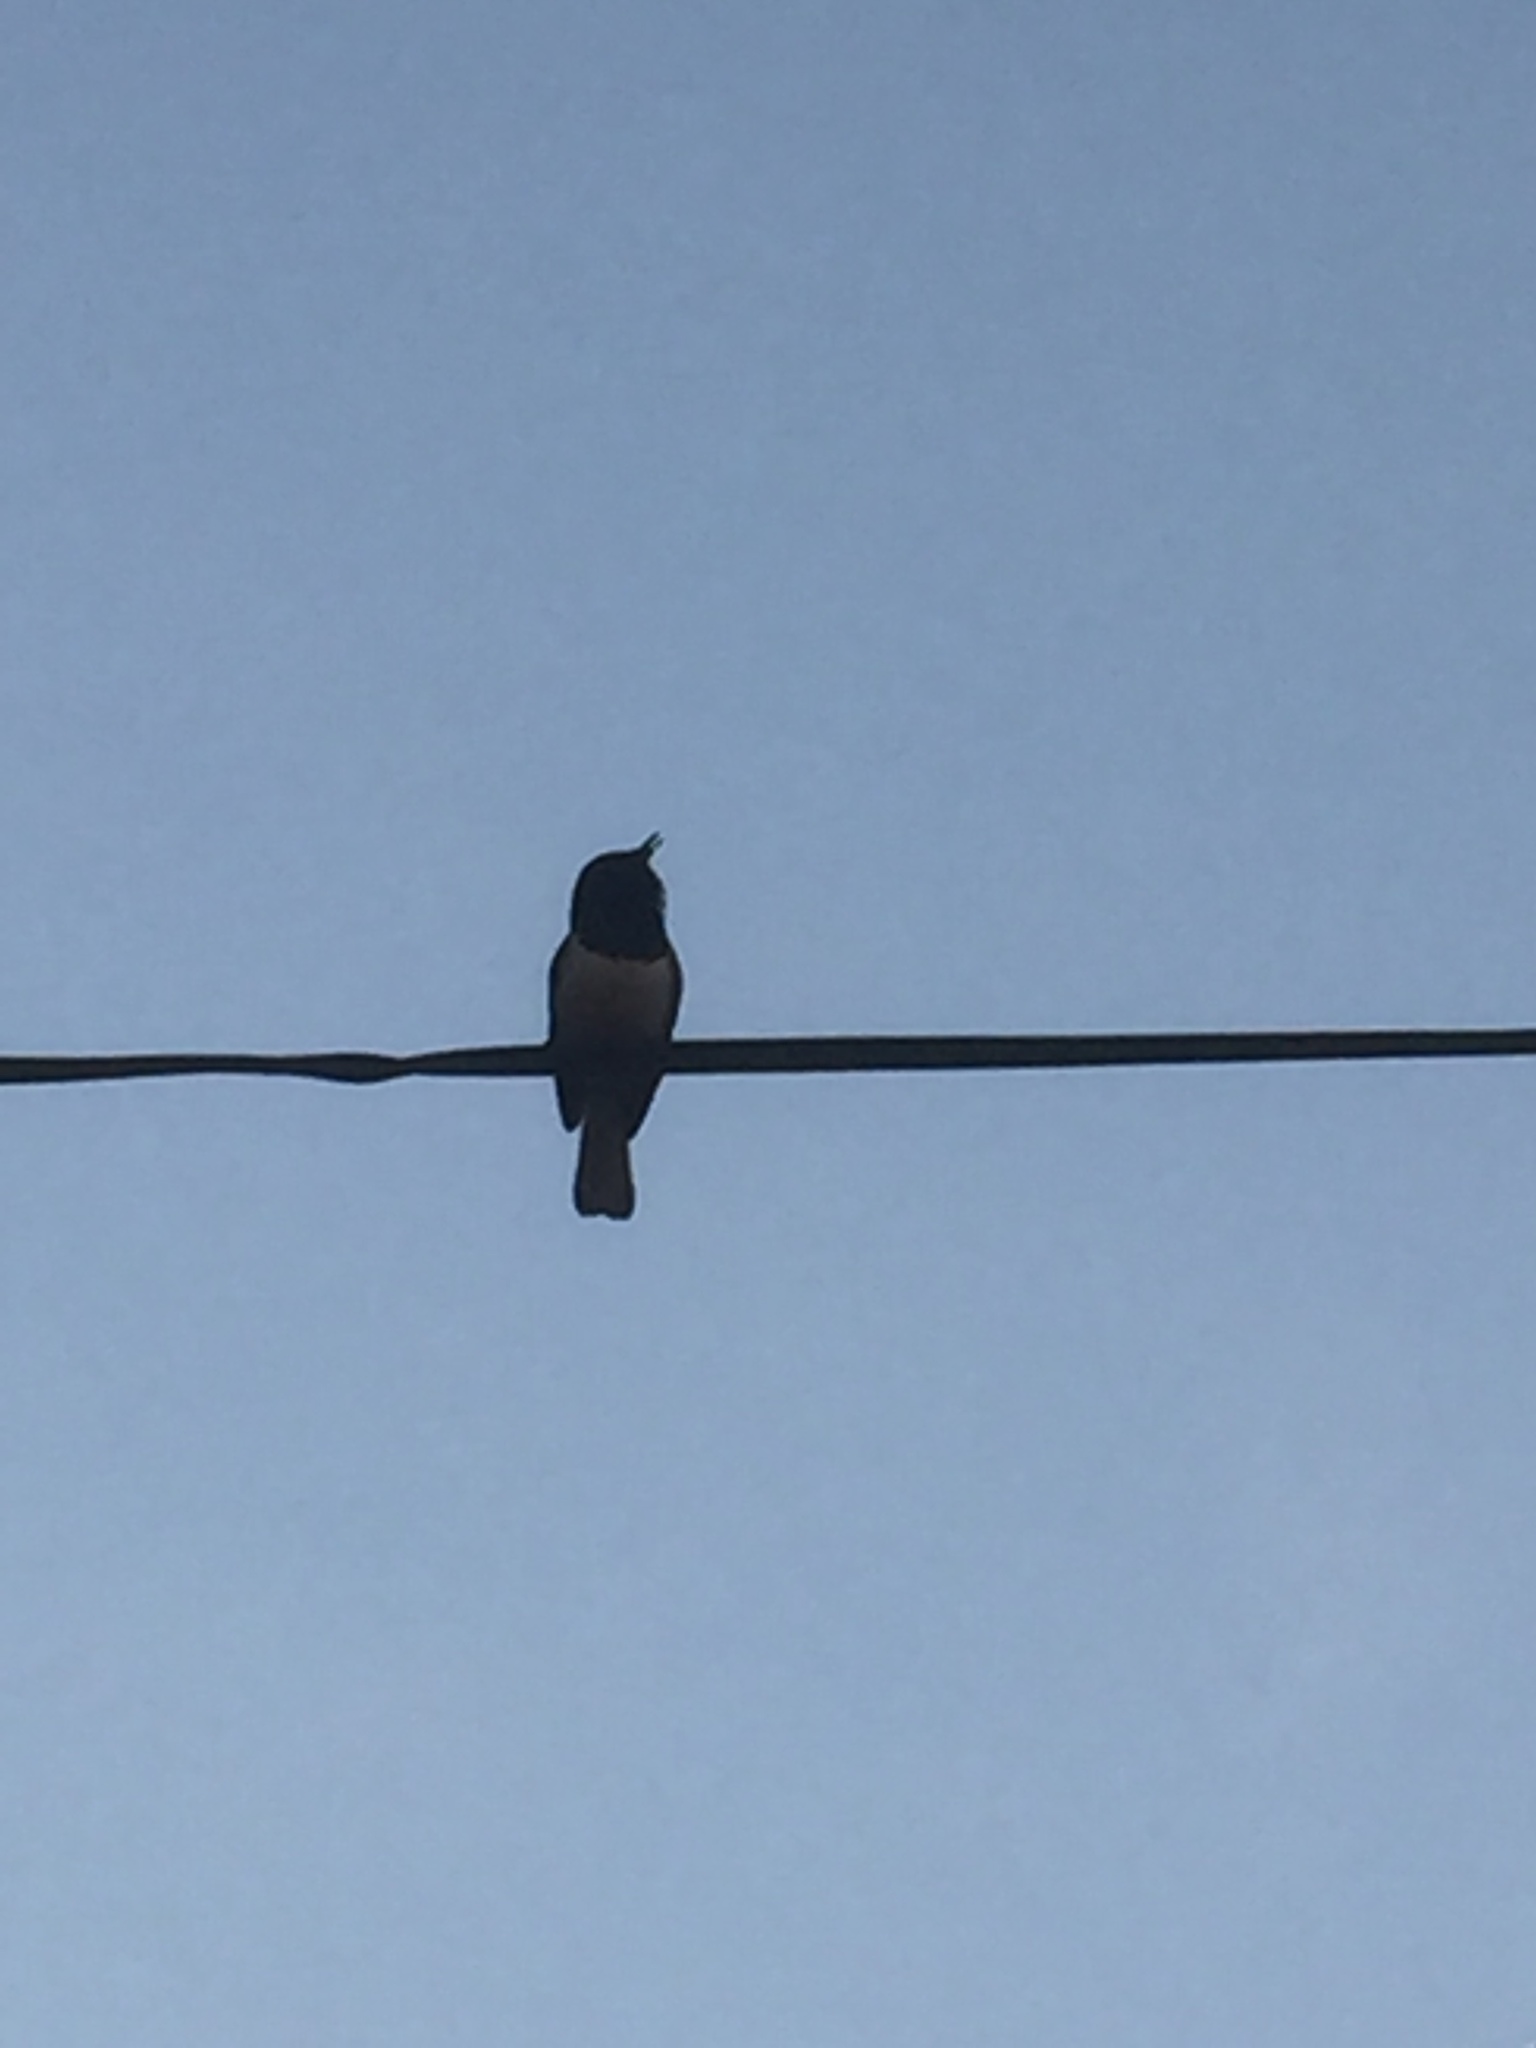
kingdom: Animalia
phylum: Chordata
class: Aves
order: Passeriformes
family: Muscicapidae
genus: Copsychus
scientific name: Copsychus saularis
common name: Oriental magpie-robin
